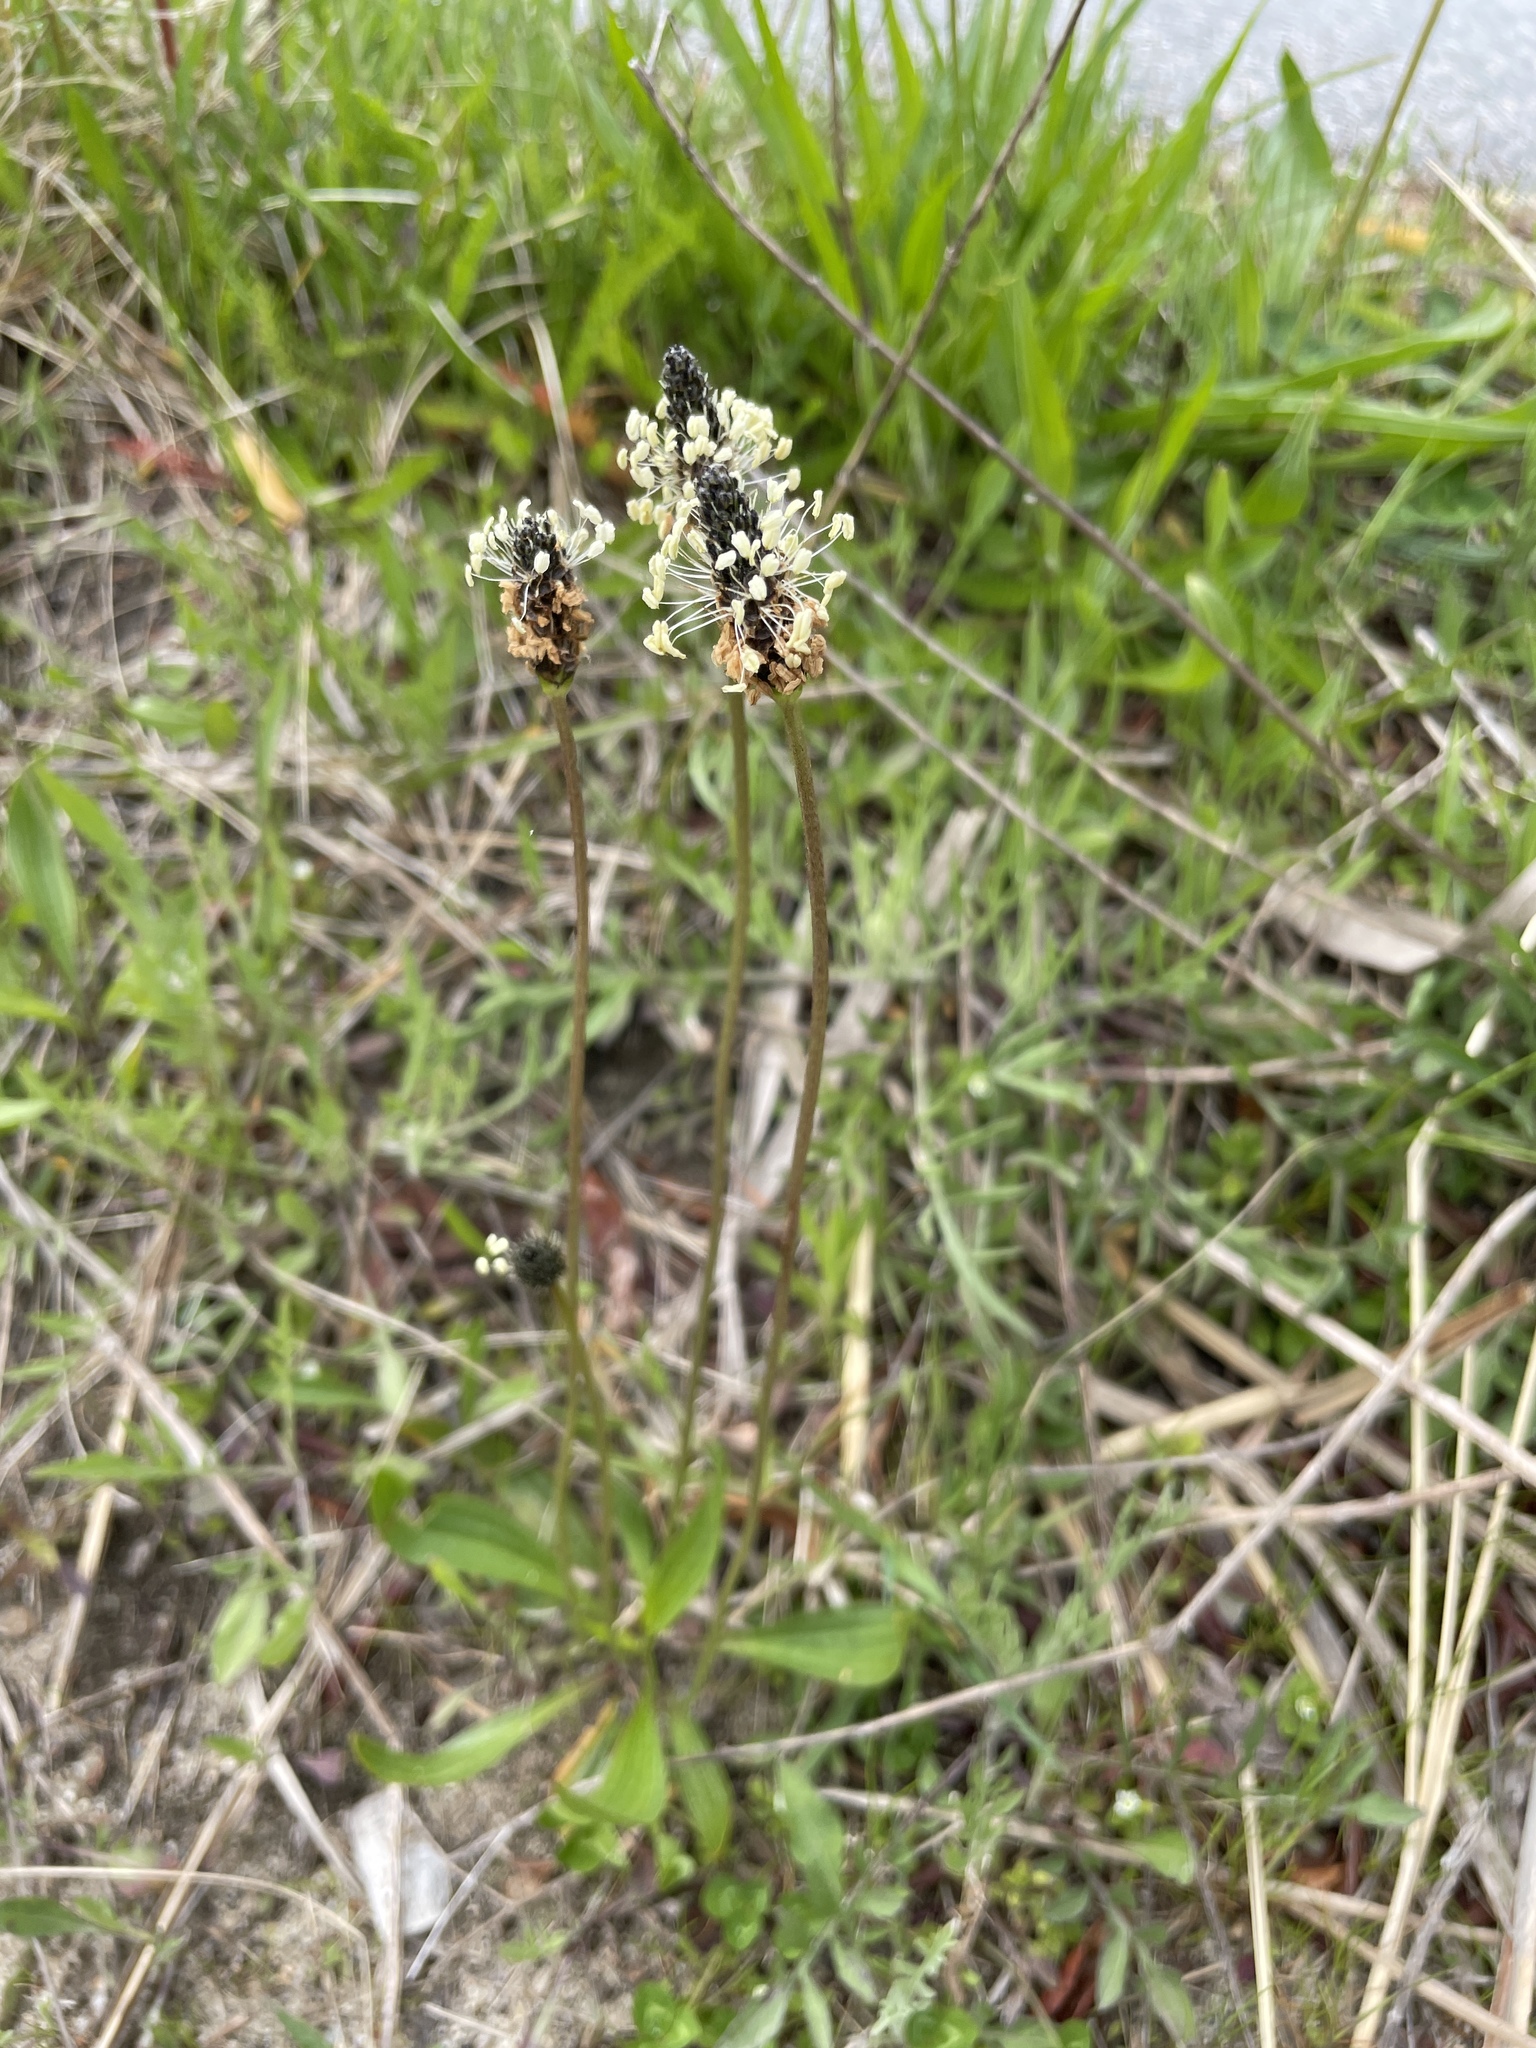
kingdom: Plantae
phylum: Tracheophyta
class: Magnoliopsida
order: Lamiales
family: Plantaginaceae
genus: Plantago
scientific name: Plantago lanceolata
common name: Ribwort plantain
